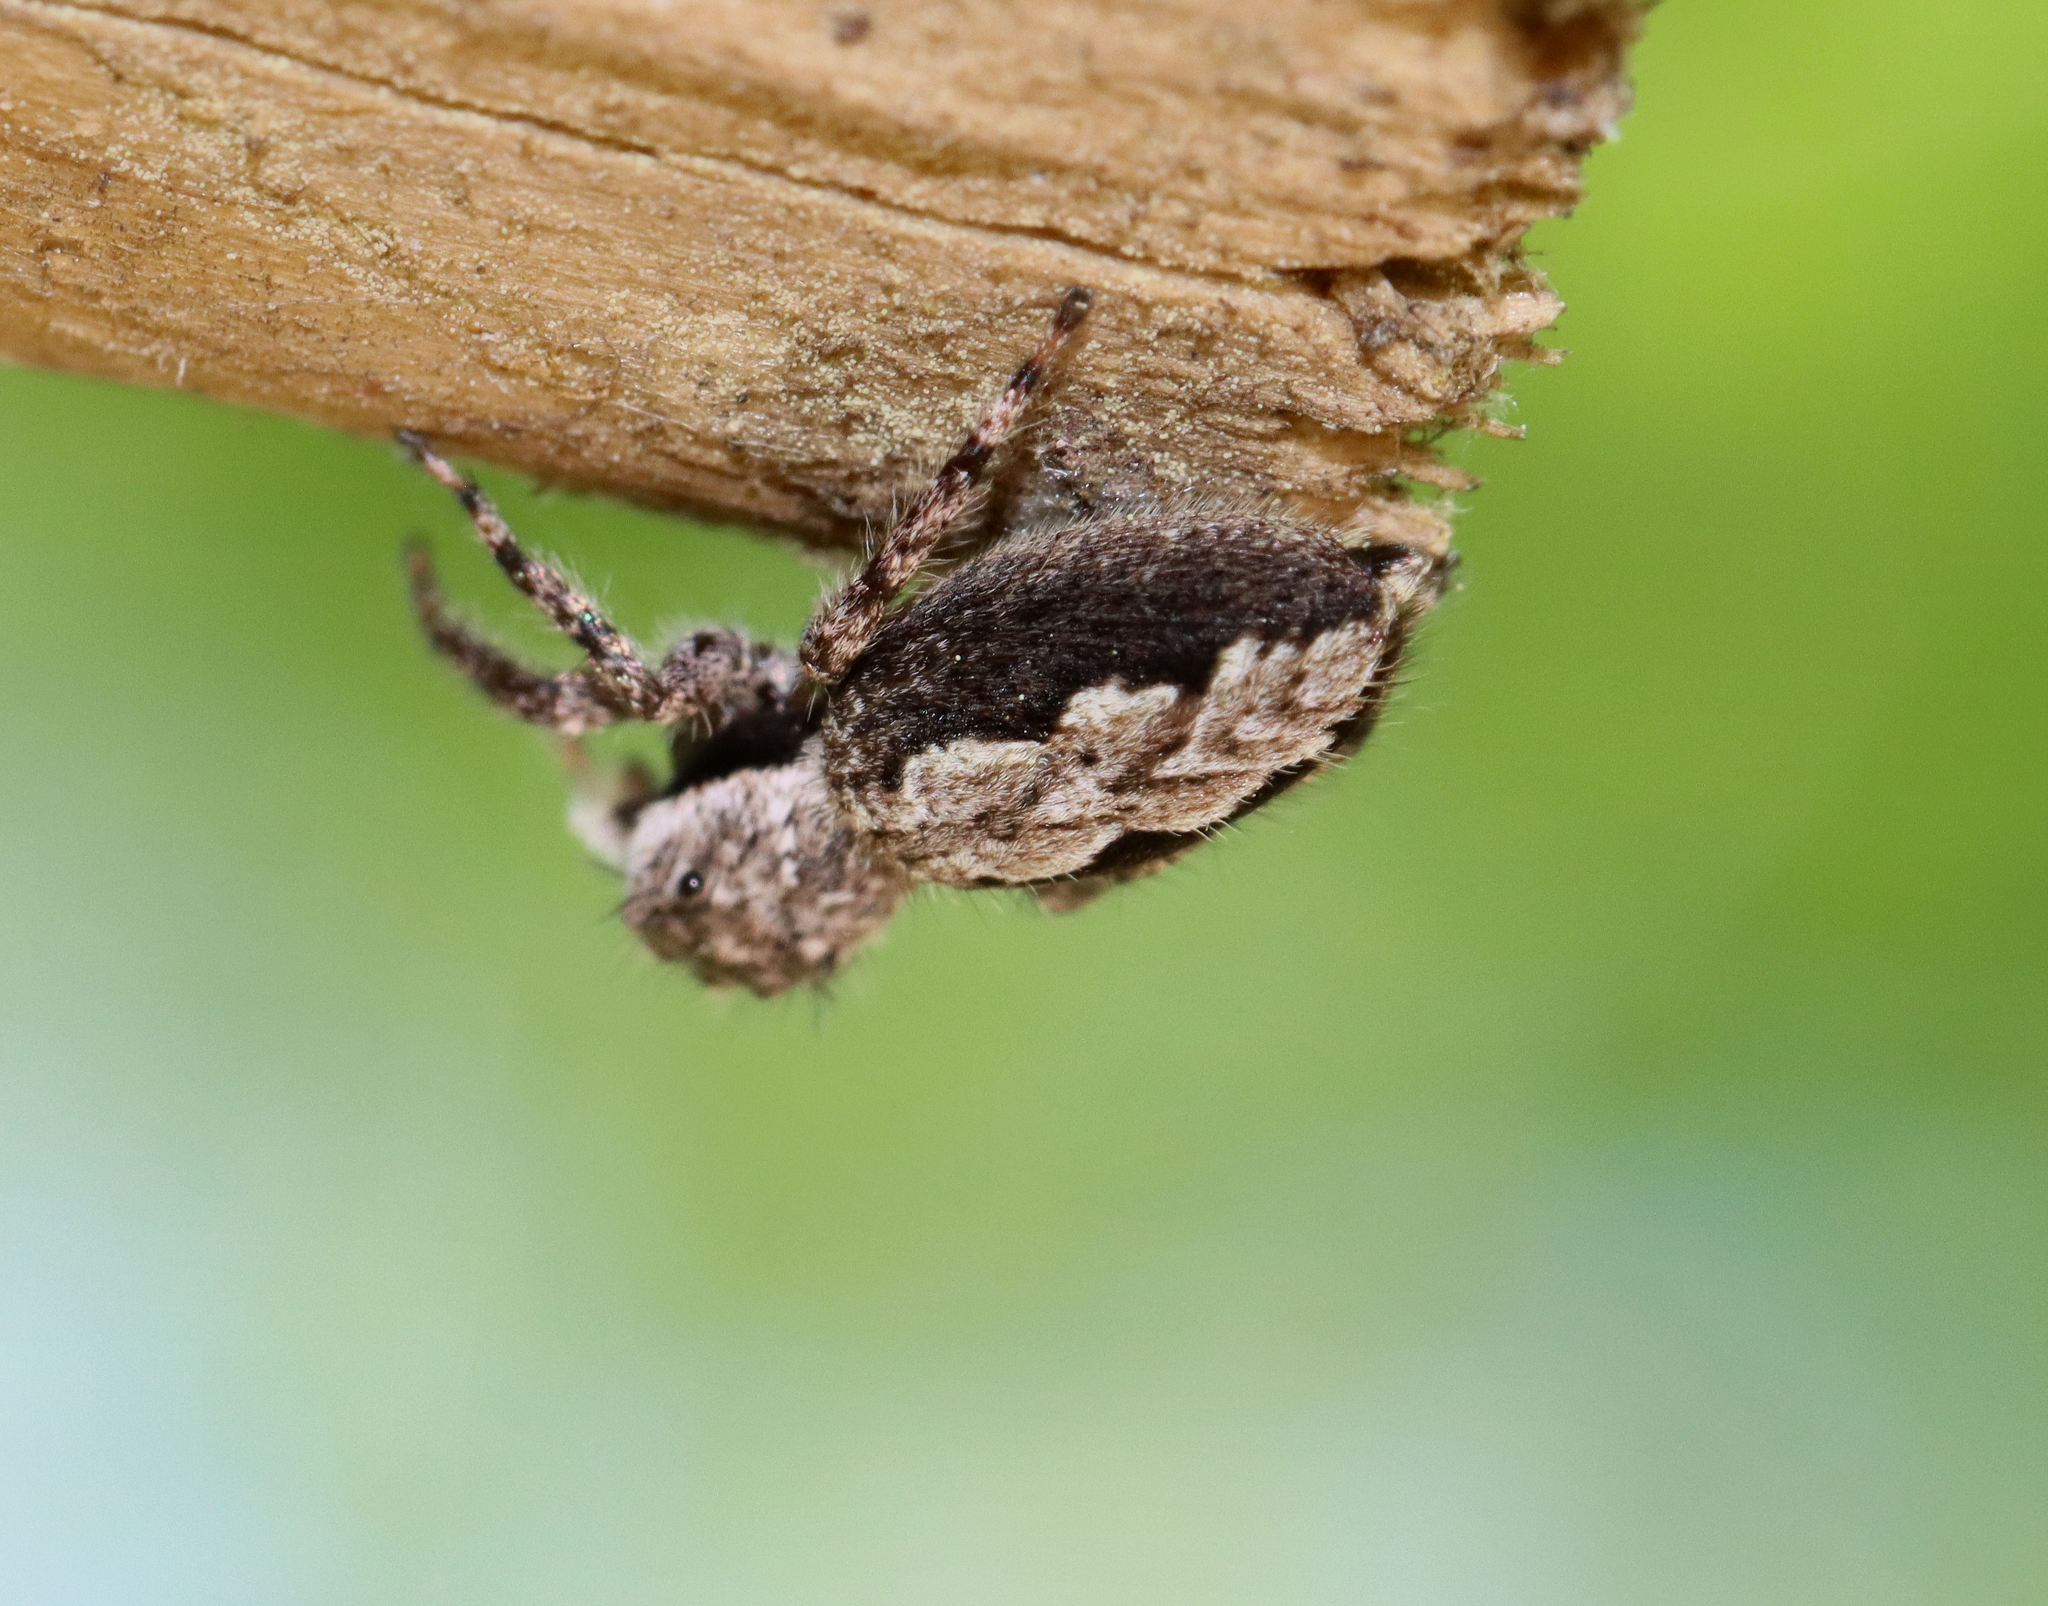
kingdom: Animalia
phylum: Arthropoda
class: Arachnida
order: Araneae
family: Salticidae
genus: Platycryptus
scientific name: Platycryptus undatus
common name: Tan jumping spider
